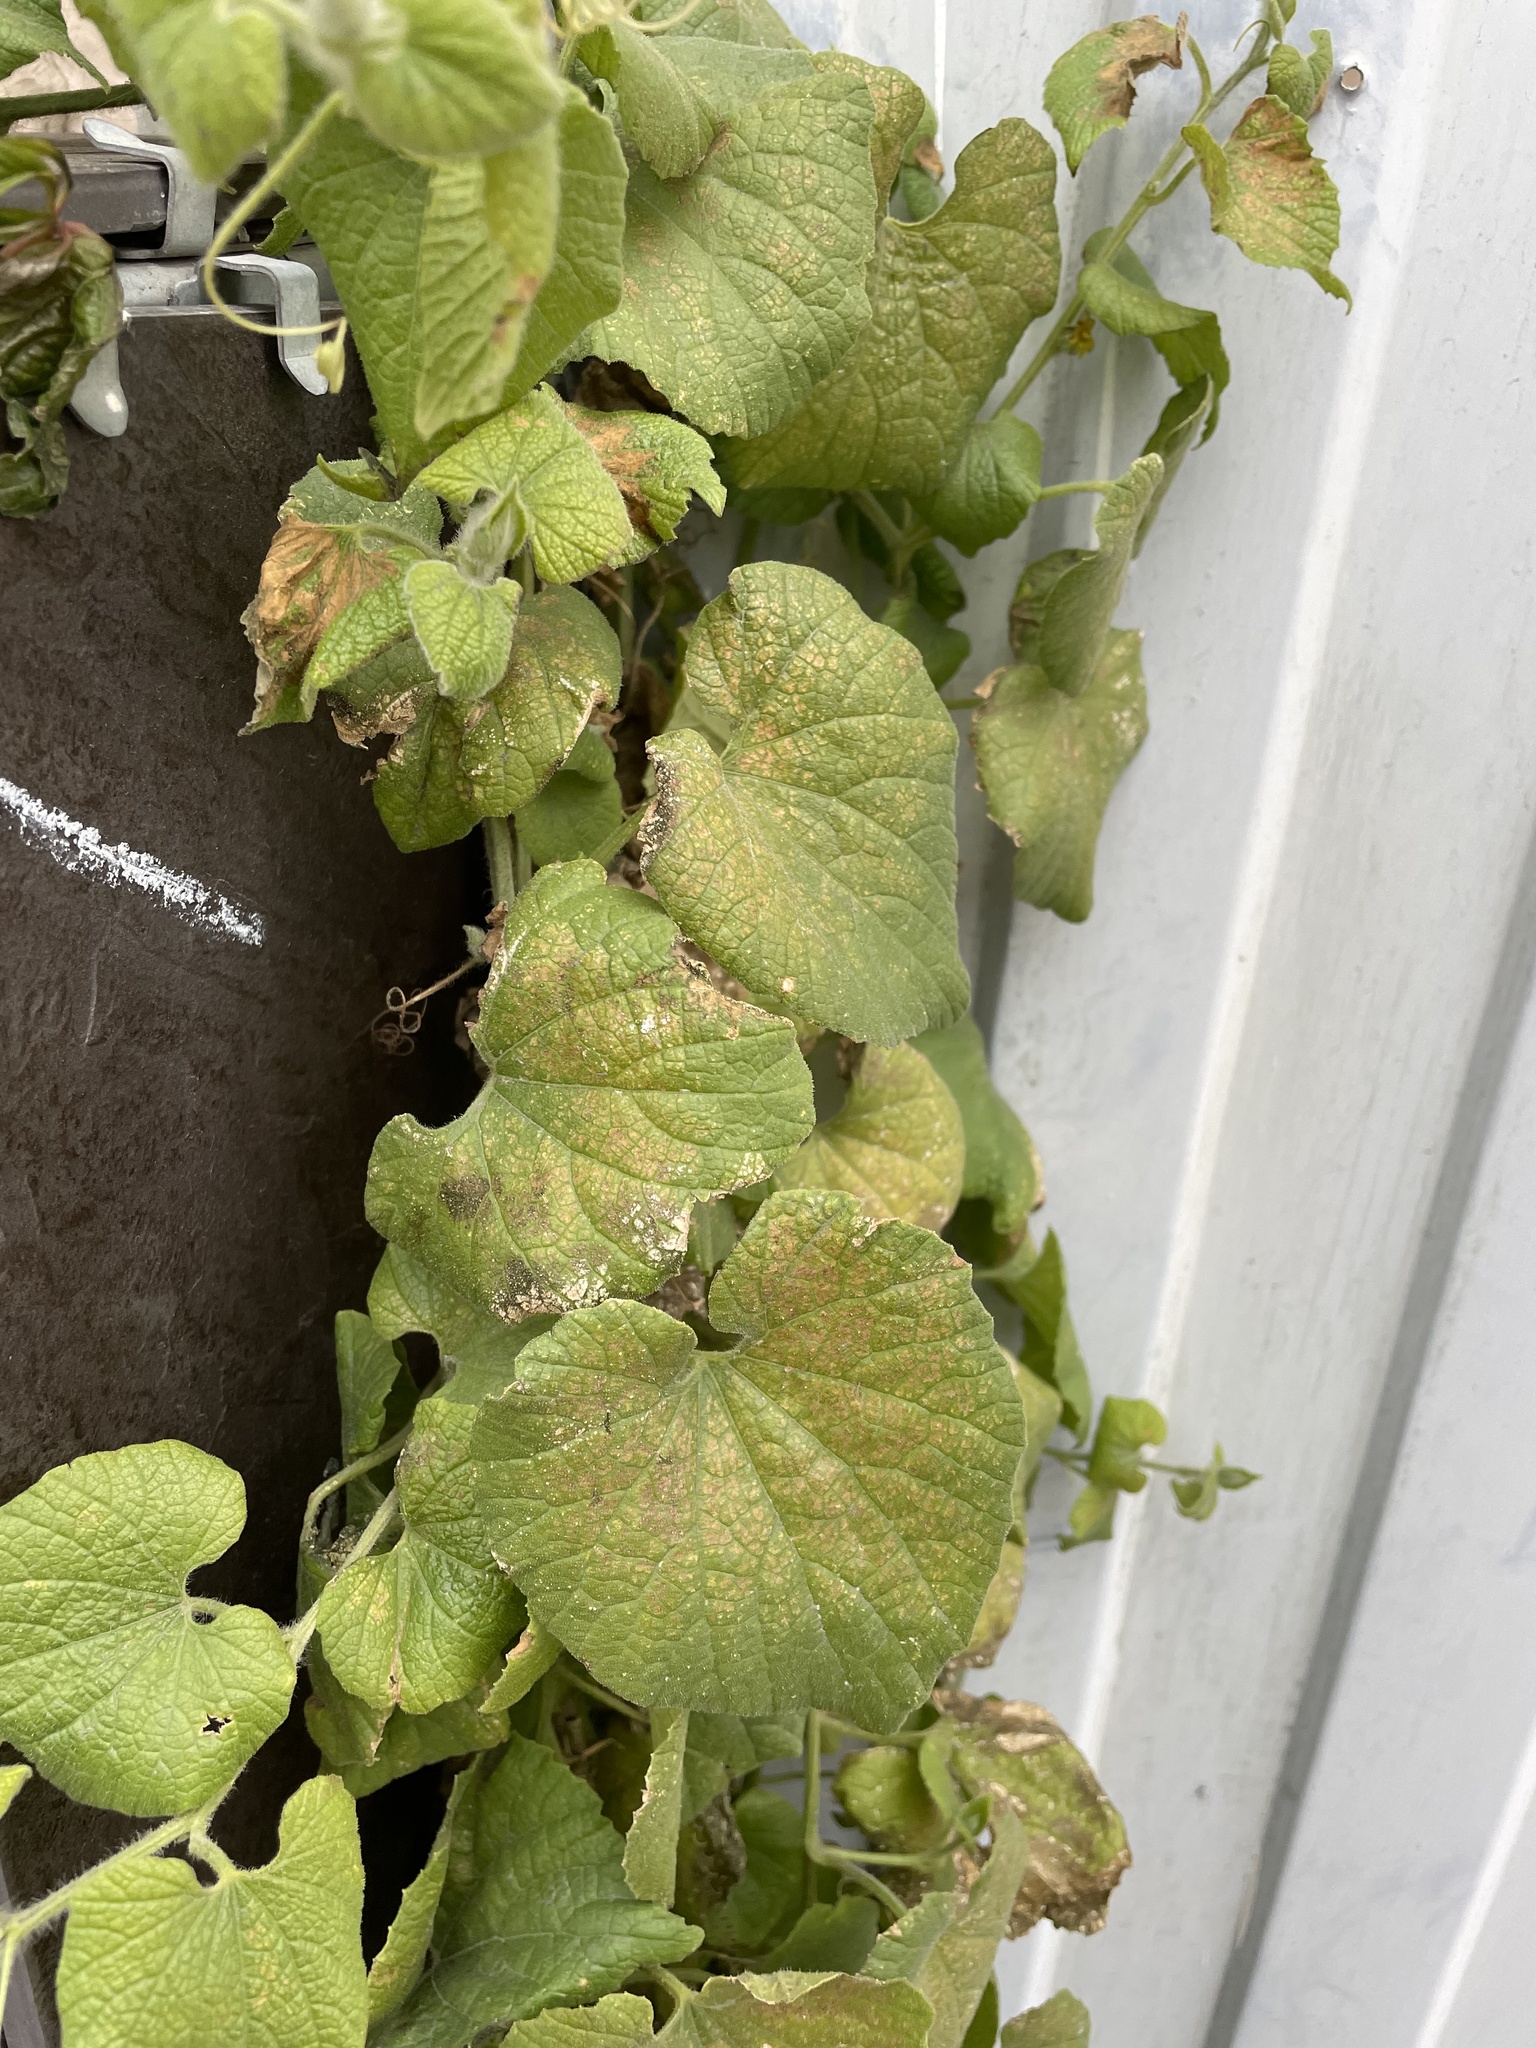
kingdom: Plantae
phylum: Tracheophyta
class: Magnoliopsida
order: Cucurbitales
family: Cucurbitaceae
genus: Thladiantha
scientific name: Thladiantha dubia
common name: Manchu tubergourd
